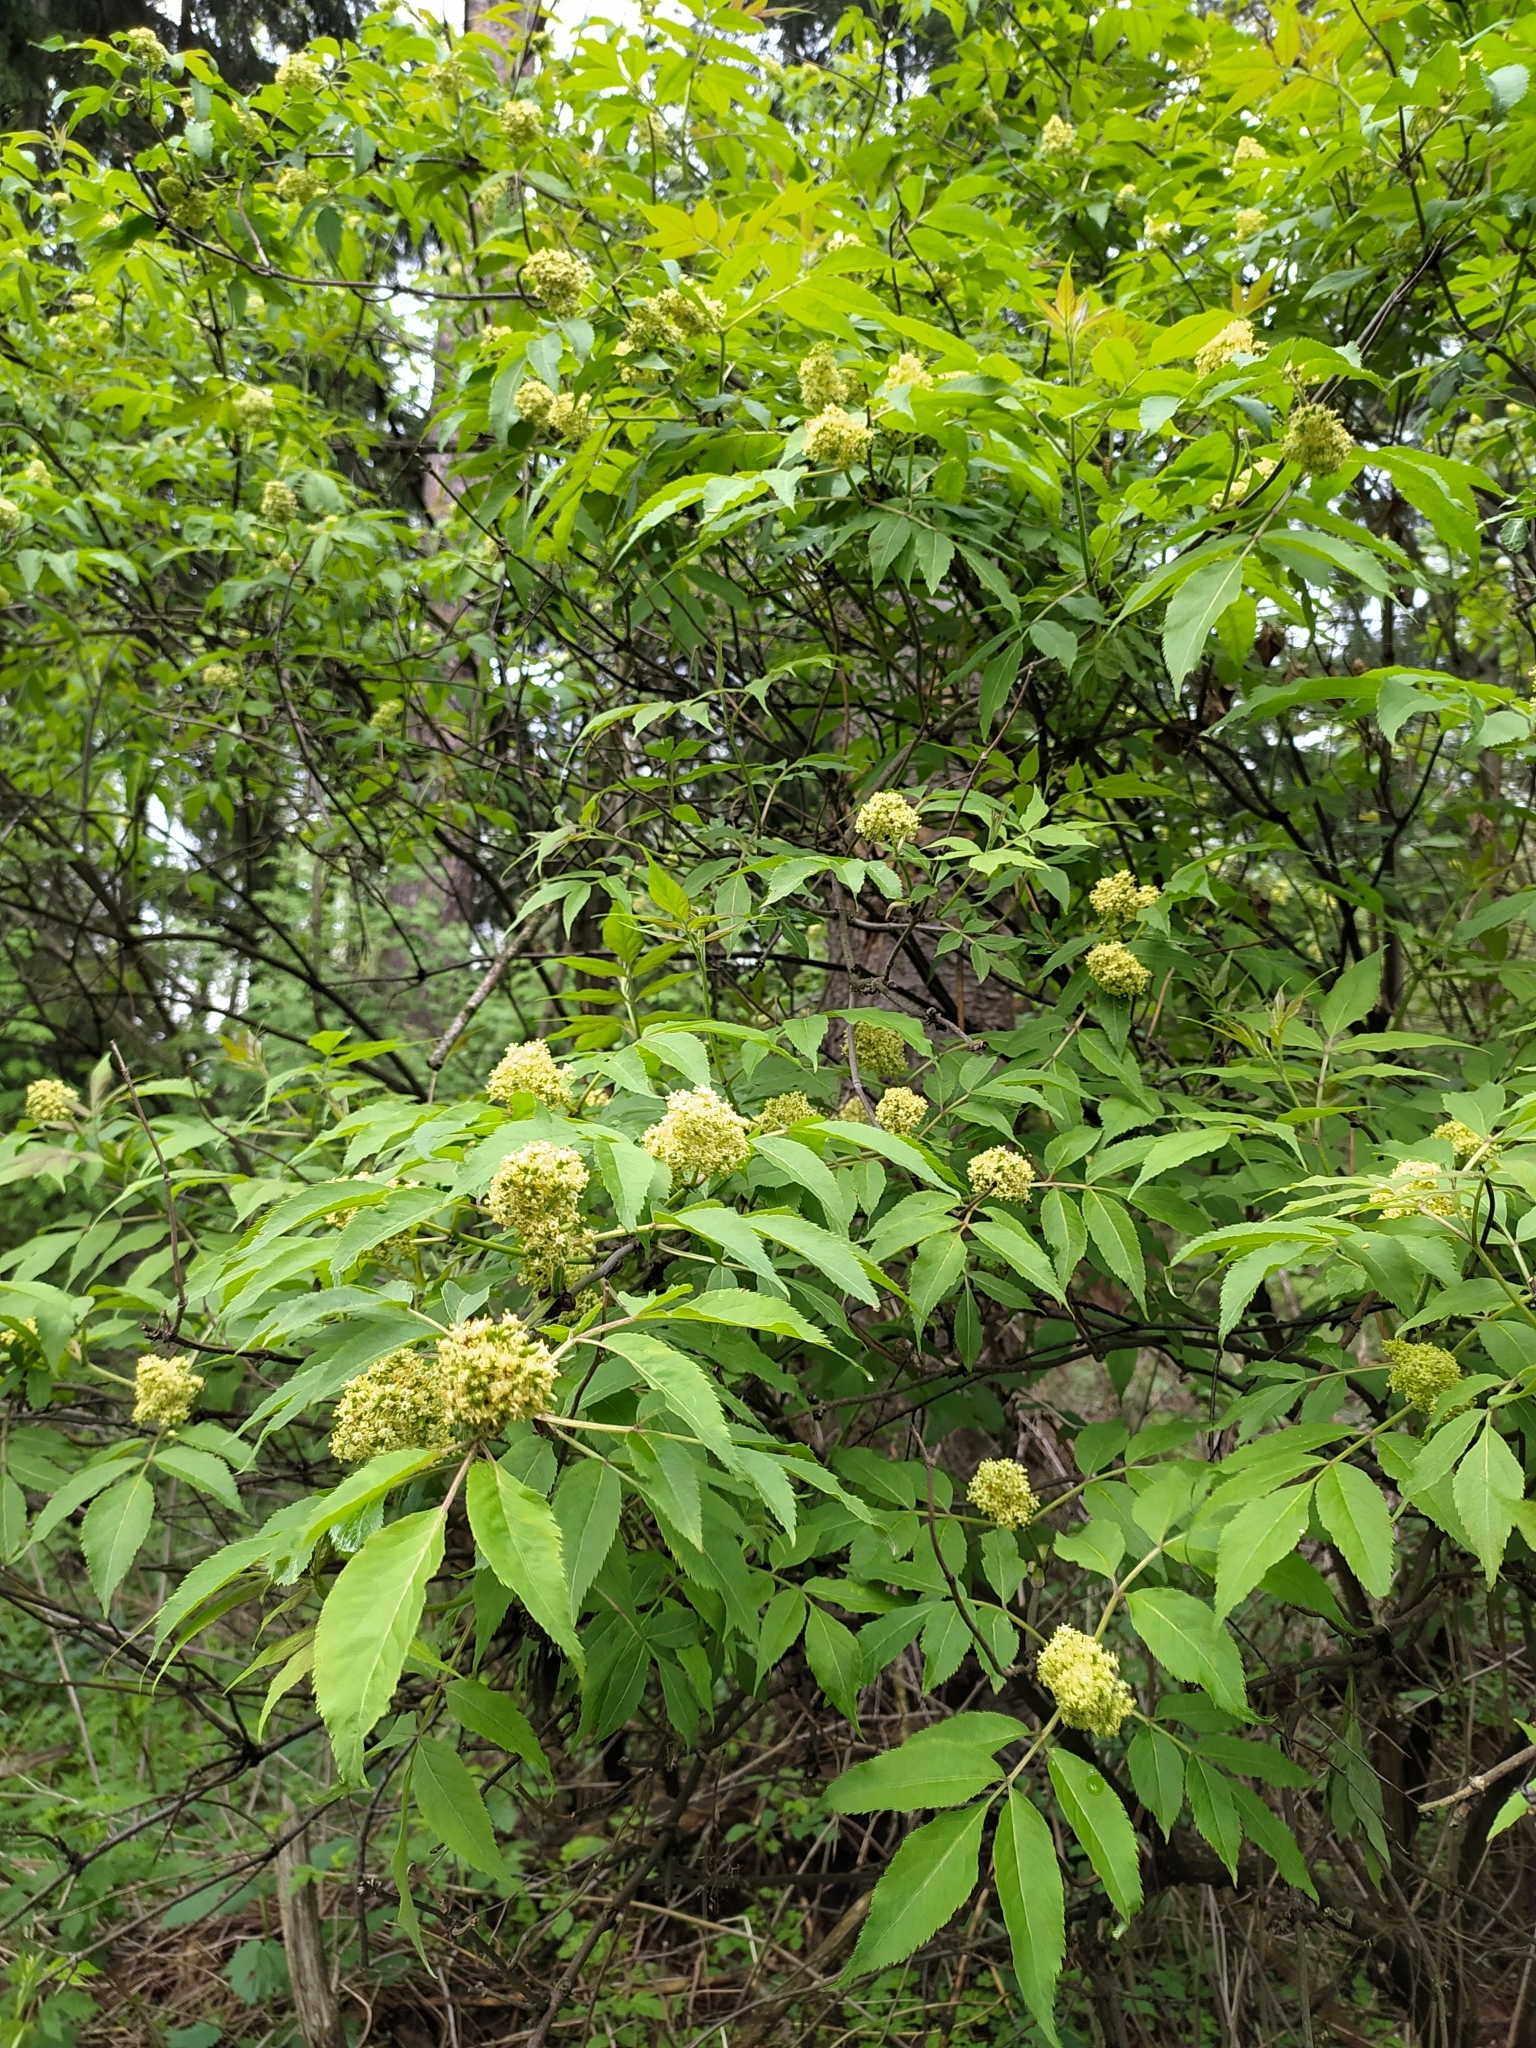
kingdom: Plantae
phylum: Tracheophyta
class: Magnoliopsida
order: Dipsacales
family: Viburnaceae
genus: Sambucus
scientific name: Sambucus racemosa
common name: Red-berried elder
